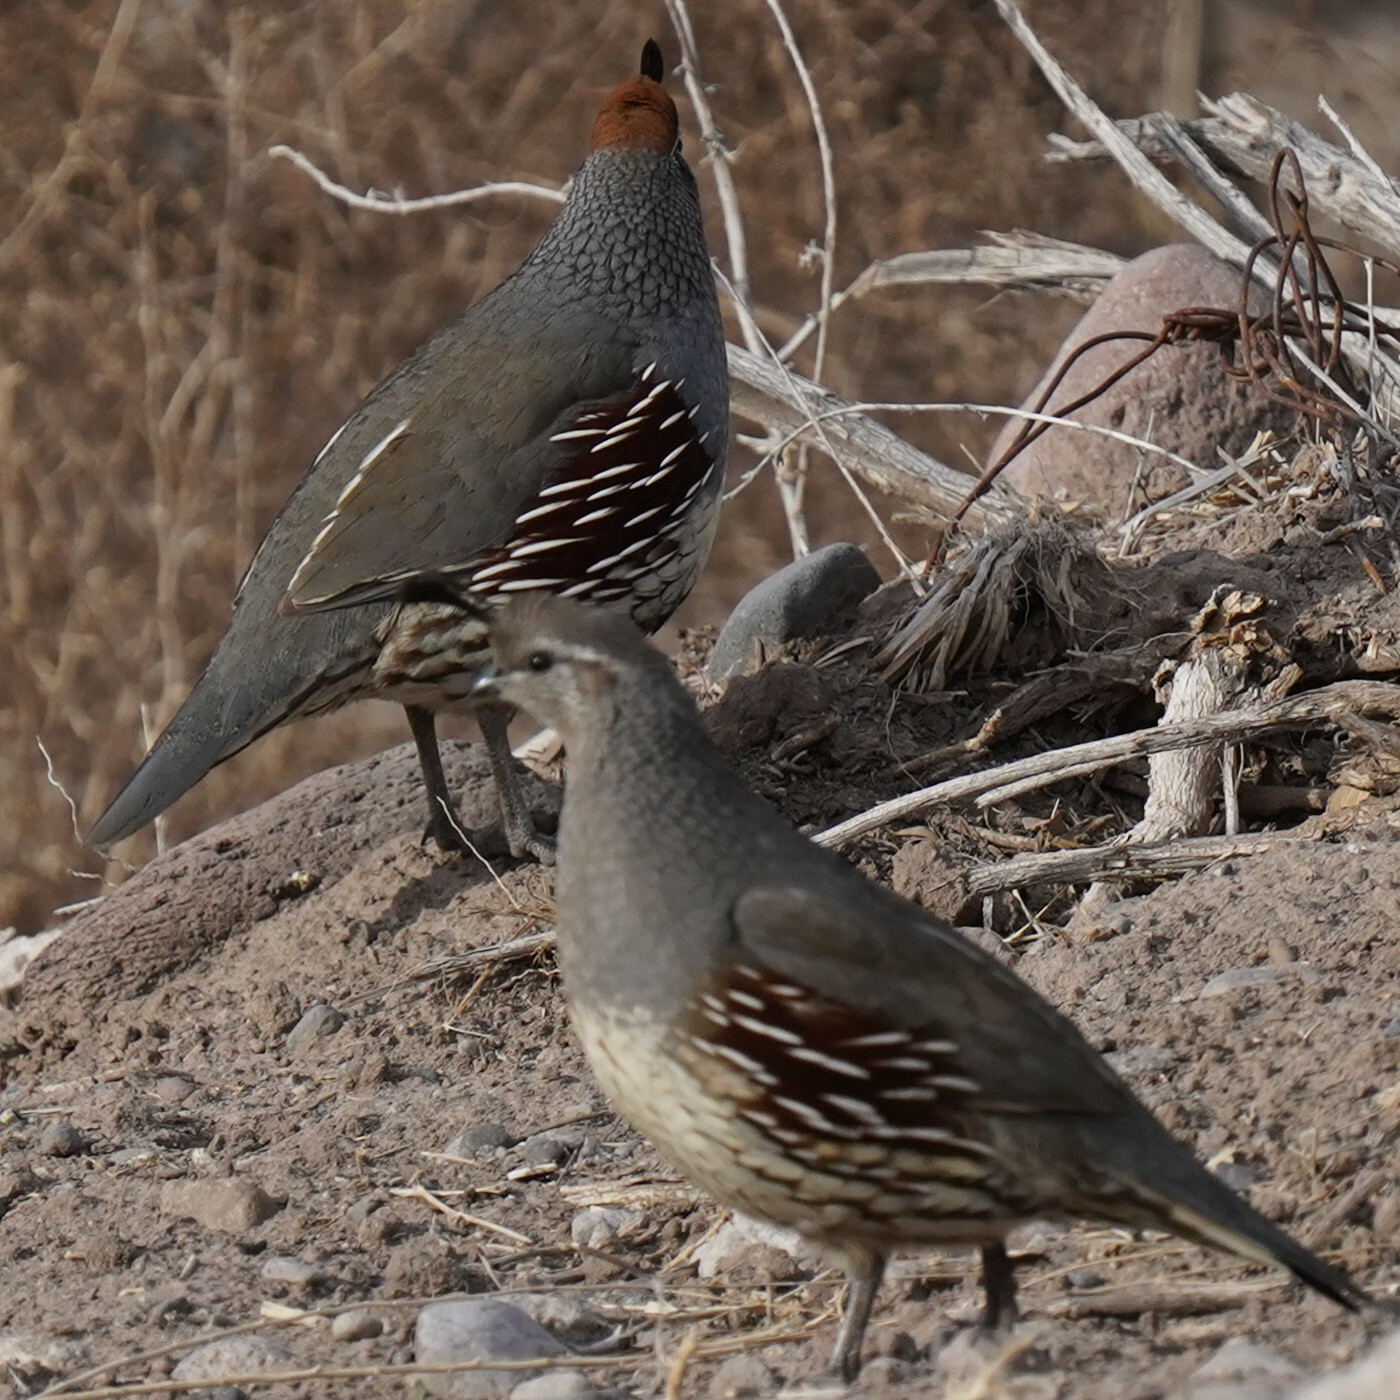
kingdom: Animalia
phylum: Chordata
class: Aves
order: Galliformes
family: Odontophoridae
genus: Callipepla
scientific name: Callipepla gambelii
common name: Gambel's quail
